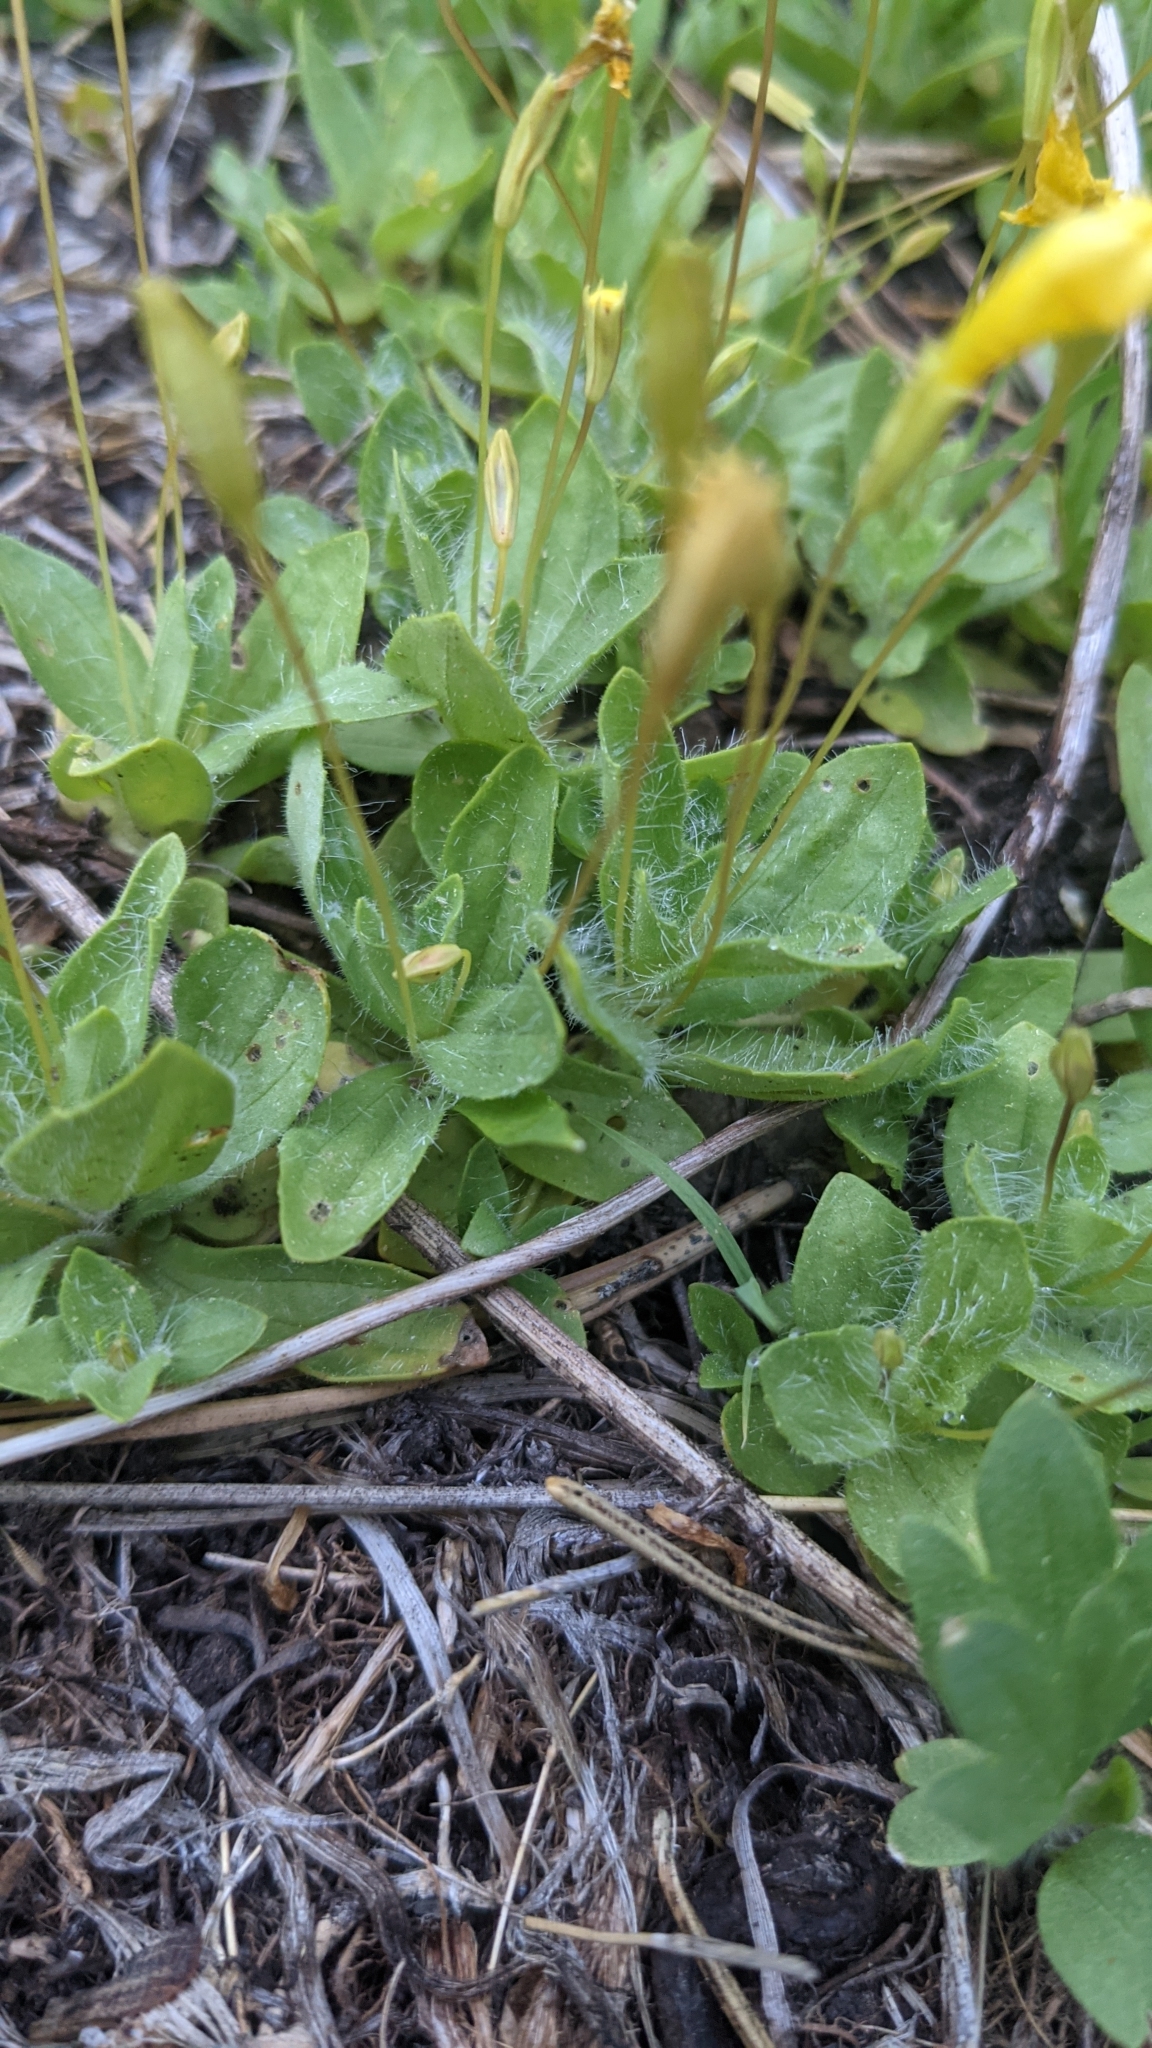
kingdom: Plantae
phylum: Tracheophyta
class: Magnoliopsida
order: Lamiales
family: Phrymaceae
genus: Erythranthe
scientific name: Erythranthe primuloides
